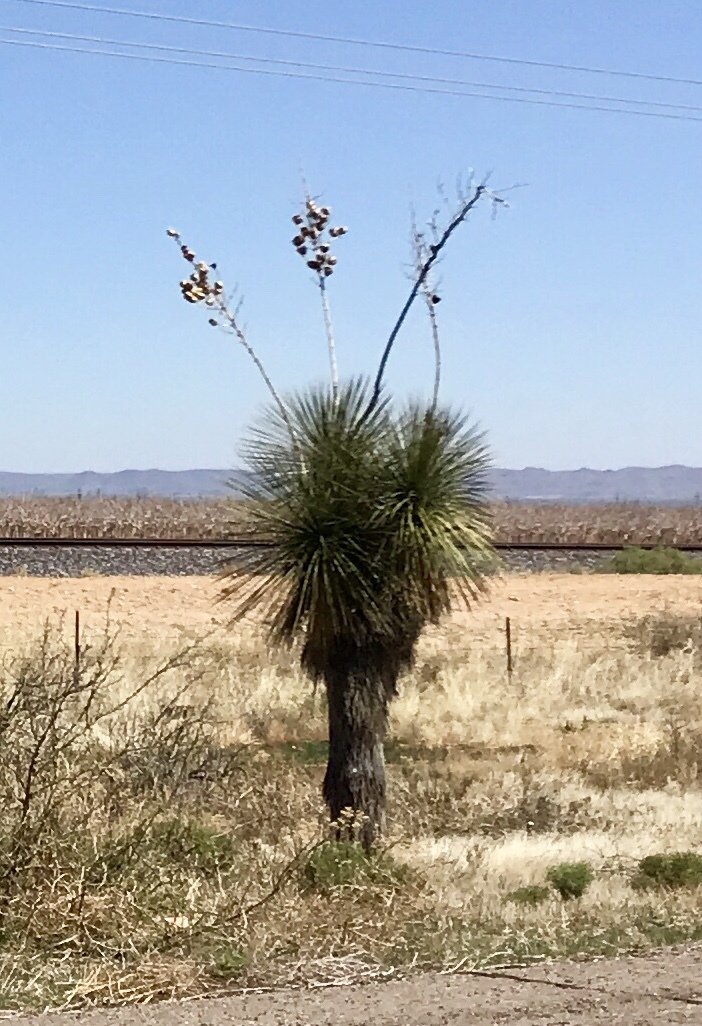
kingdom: Plantae
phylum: Tracheophyta
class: Liliopsida
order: Asparagales
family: Asparagaceae
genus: Yucca
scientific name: Yucca elata
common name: Palmella
